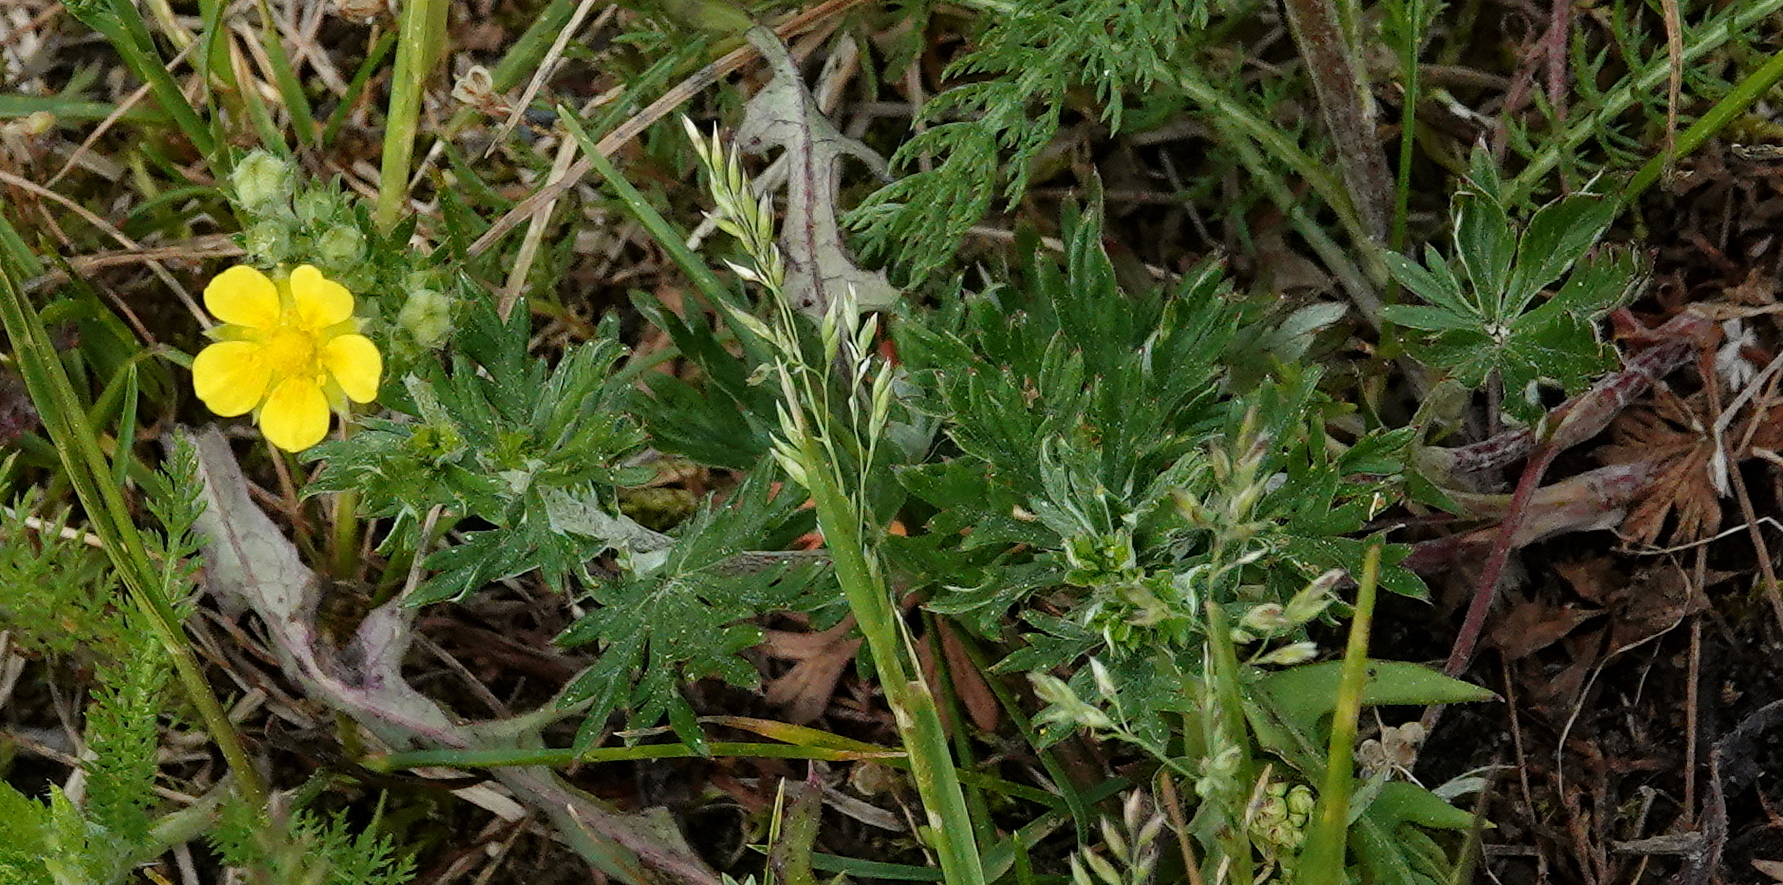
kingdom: Plantae
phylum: Tracheophyta
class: Magnoliopsida
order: Rosales
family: Rosaceae
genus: Potentilla
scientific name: Potentilla argentea
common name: Hoary cinquefoil
